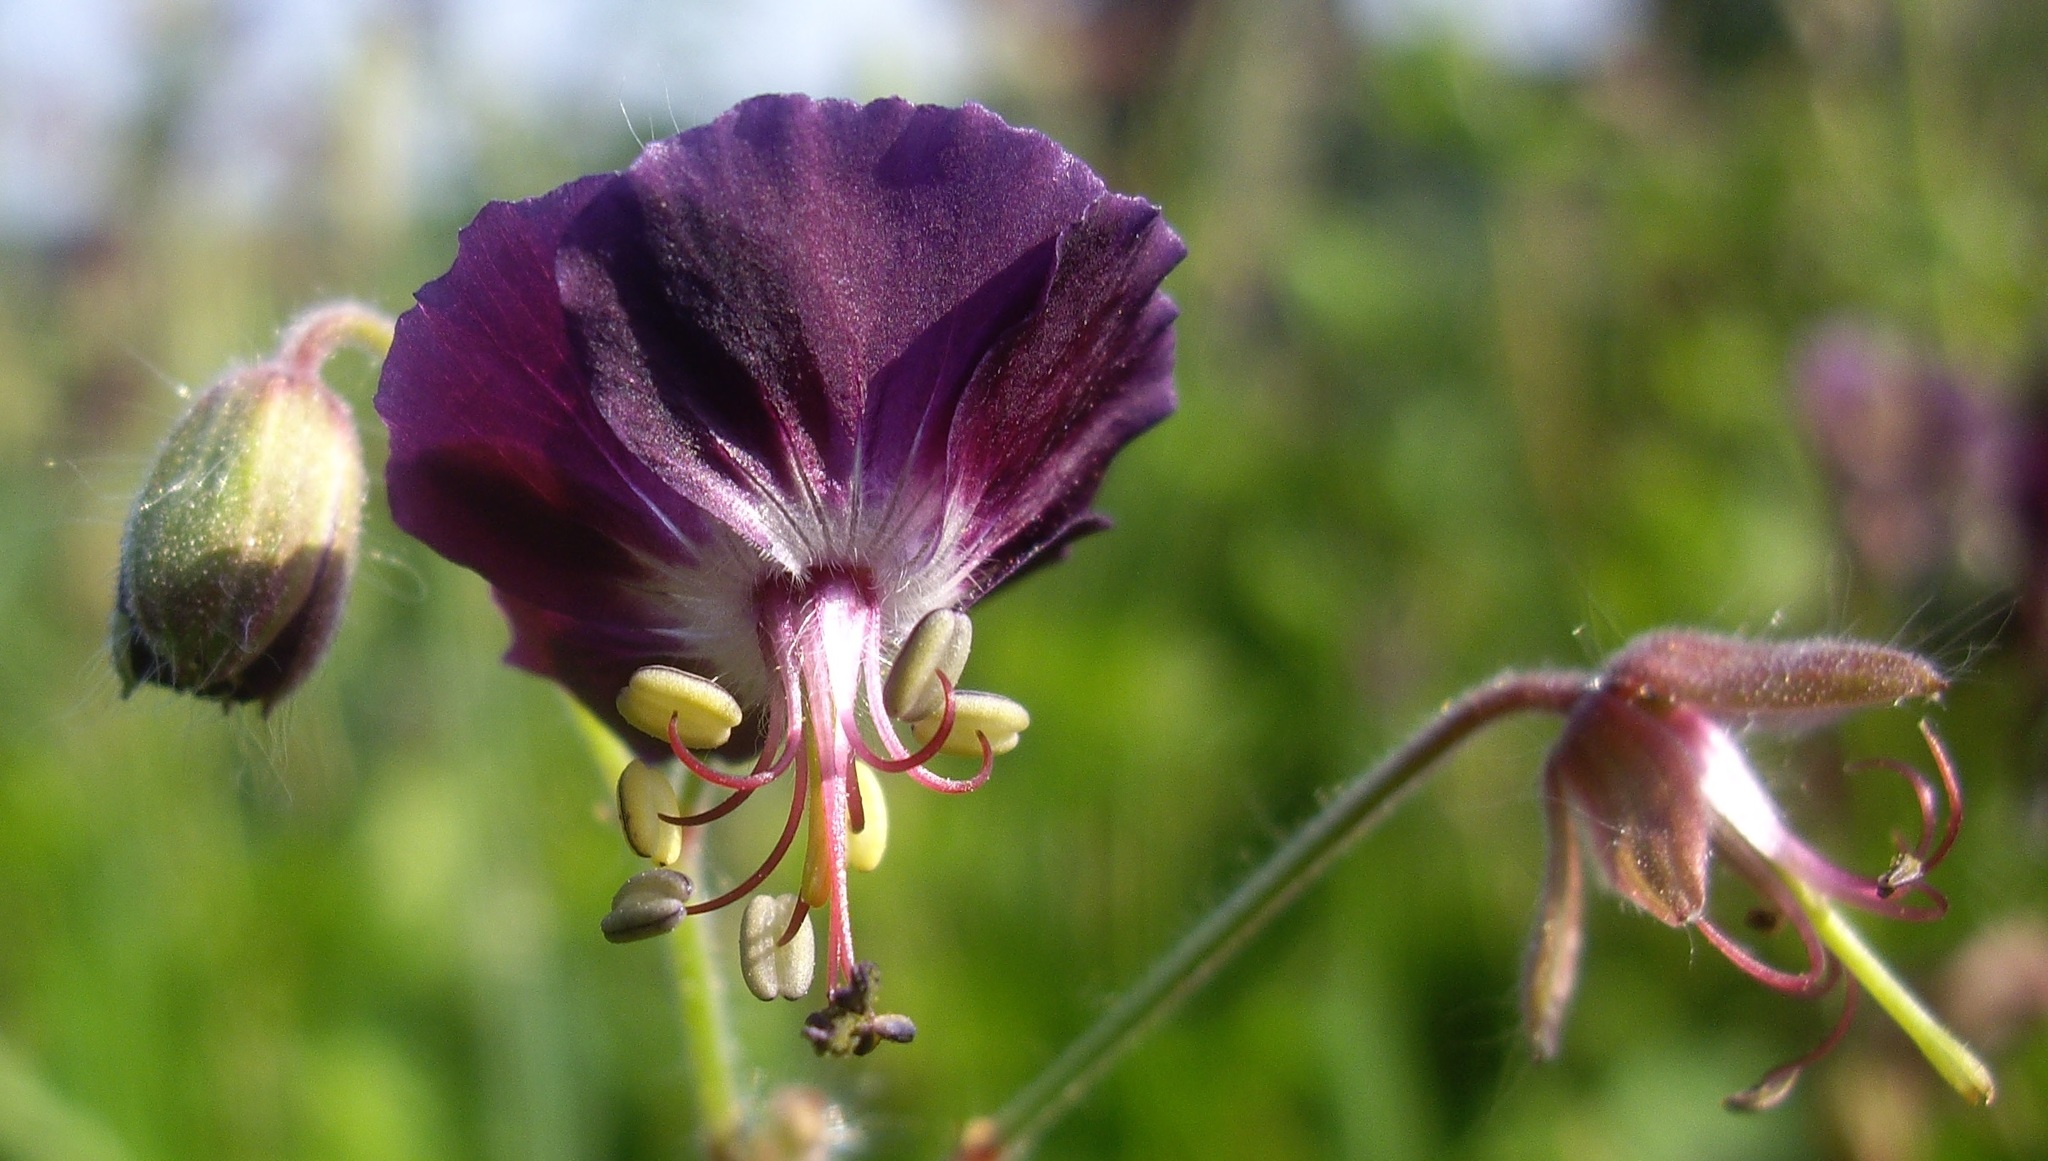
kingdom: Plantae
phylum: Tracheophyta
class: Magnoliopsida
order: Geraniales
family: Geraniaceae
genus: Geranium
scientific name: Geranium phaeum
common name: Dusky crane's-bill
